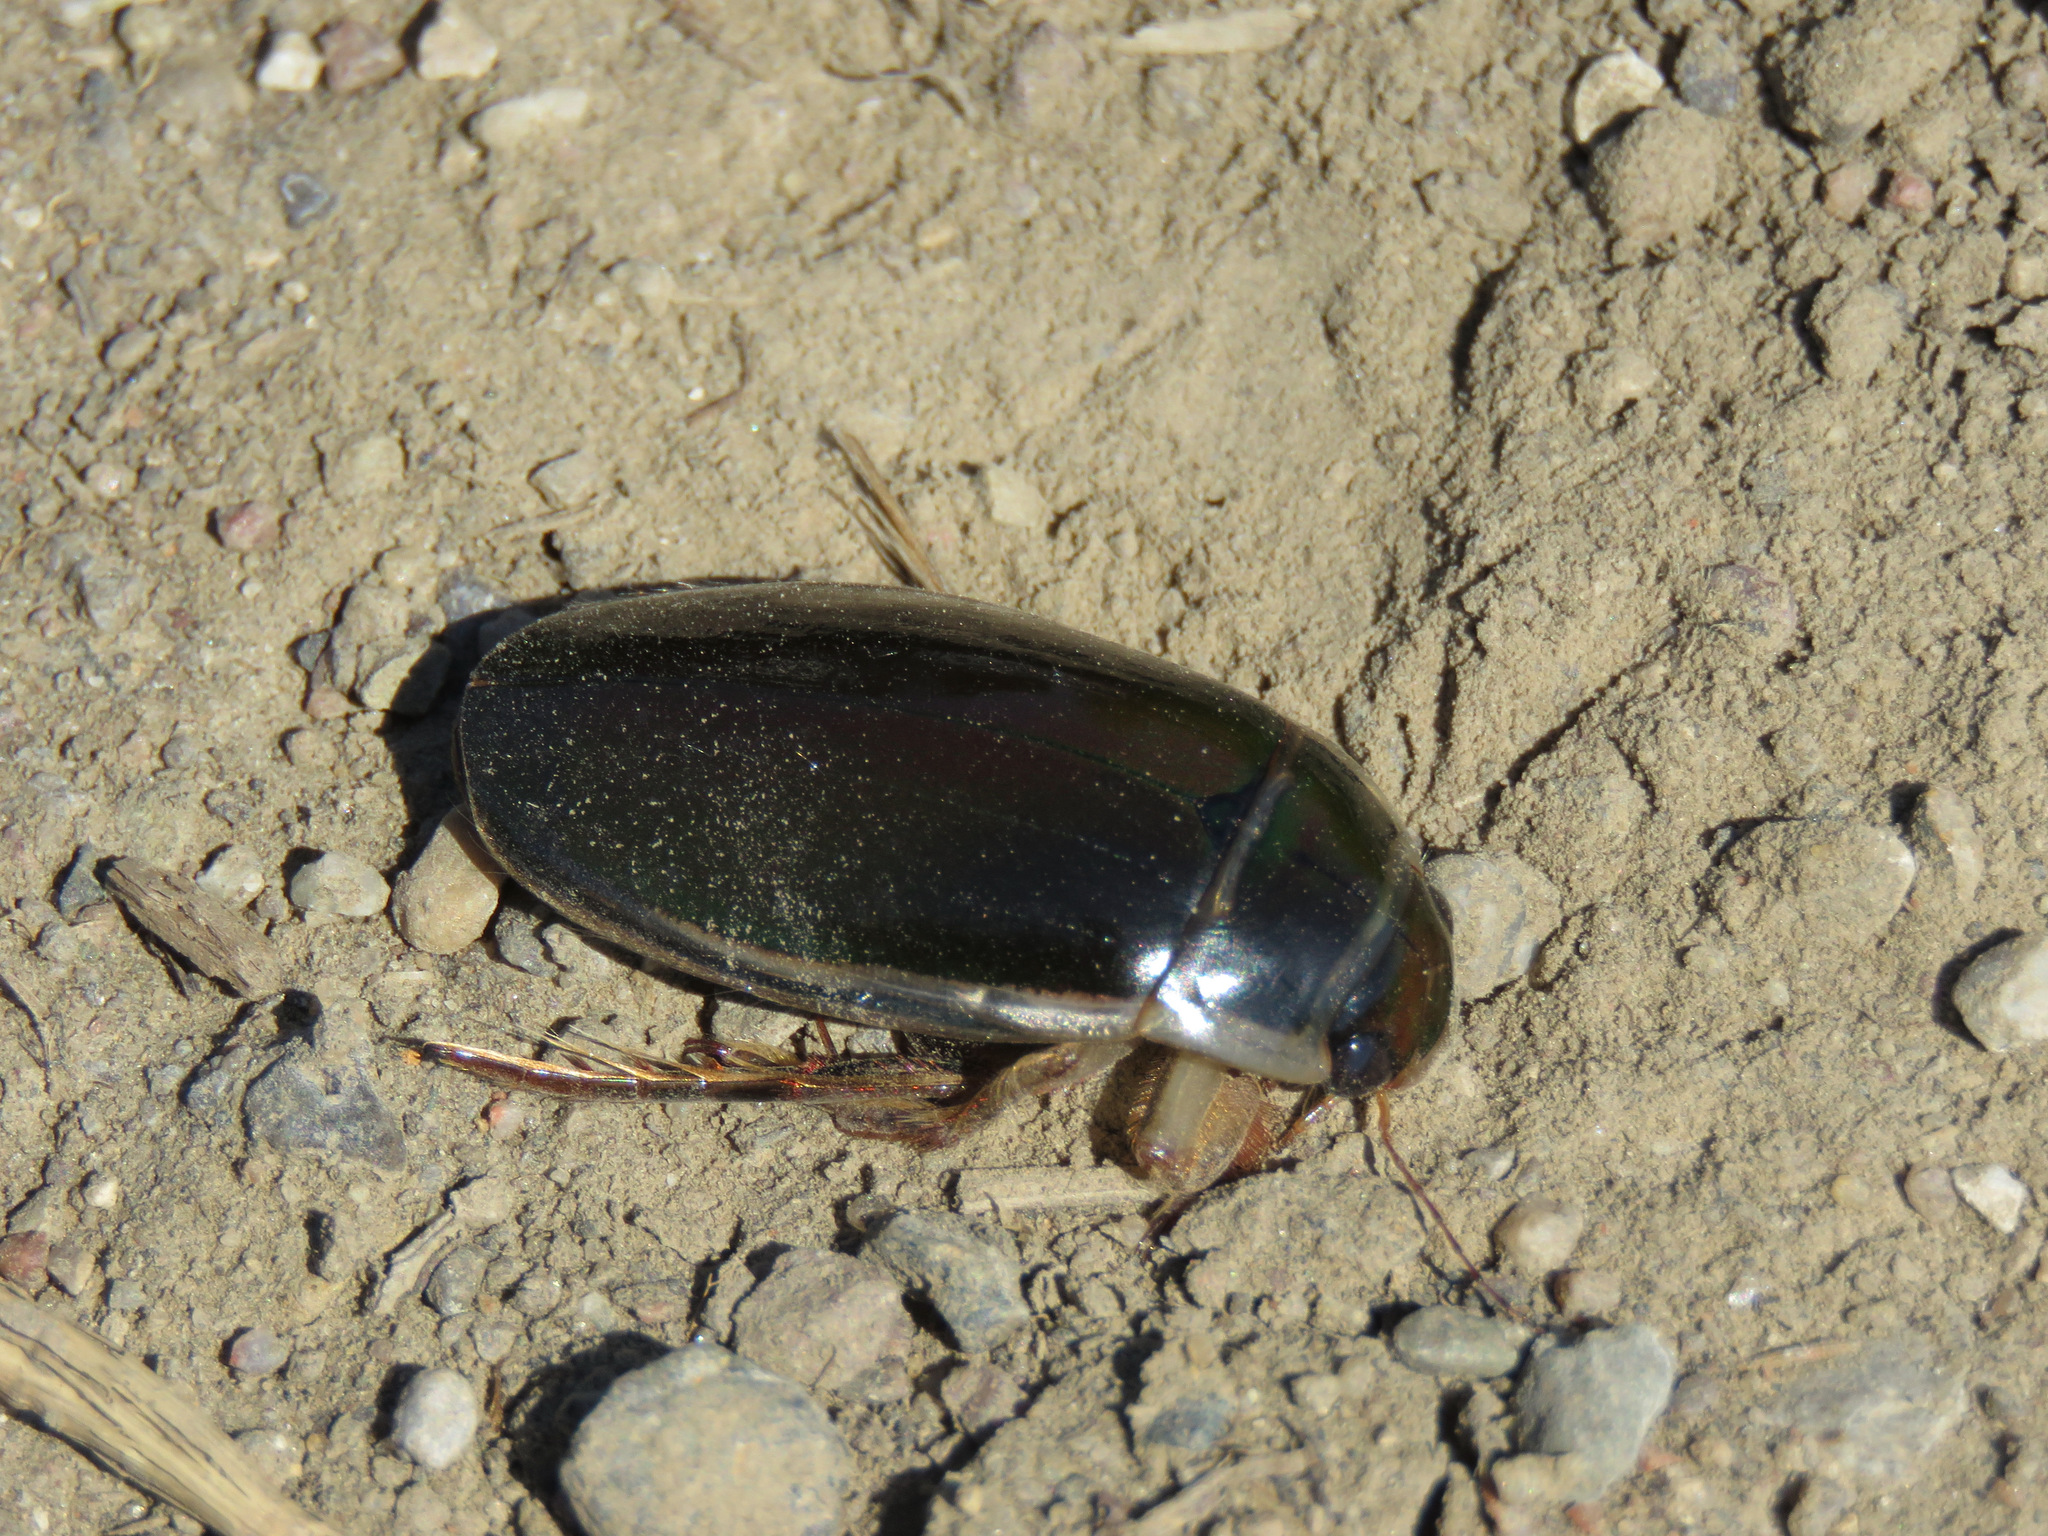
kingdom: Animalia
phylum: Arthropoda
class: Insecta
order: Coleoptera
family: Dytiscidae
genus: Dytiscus
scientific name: Dytiscus
